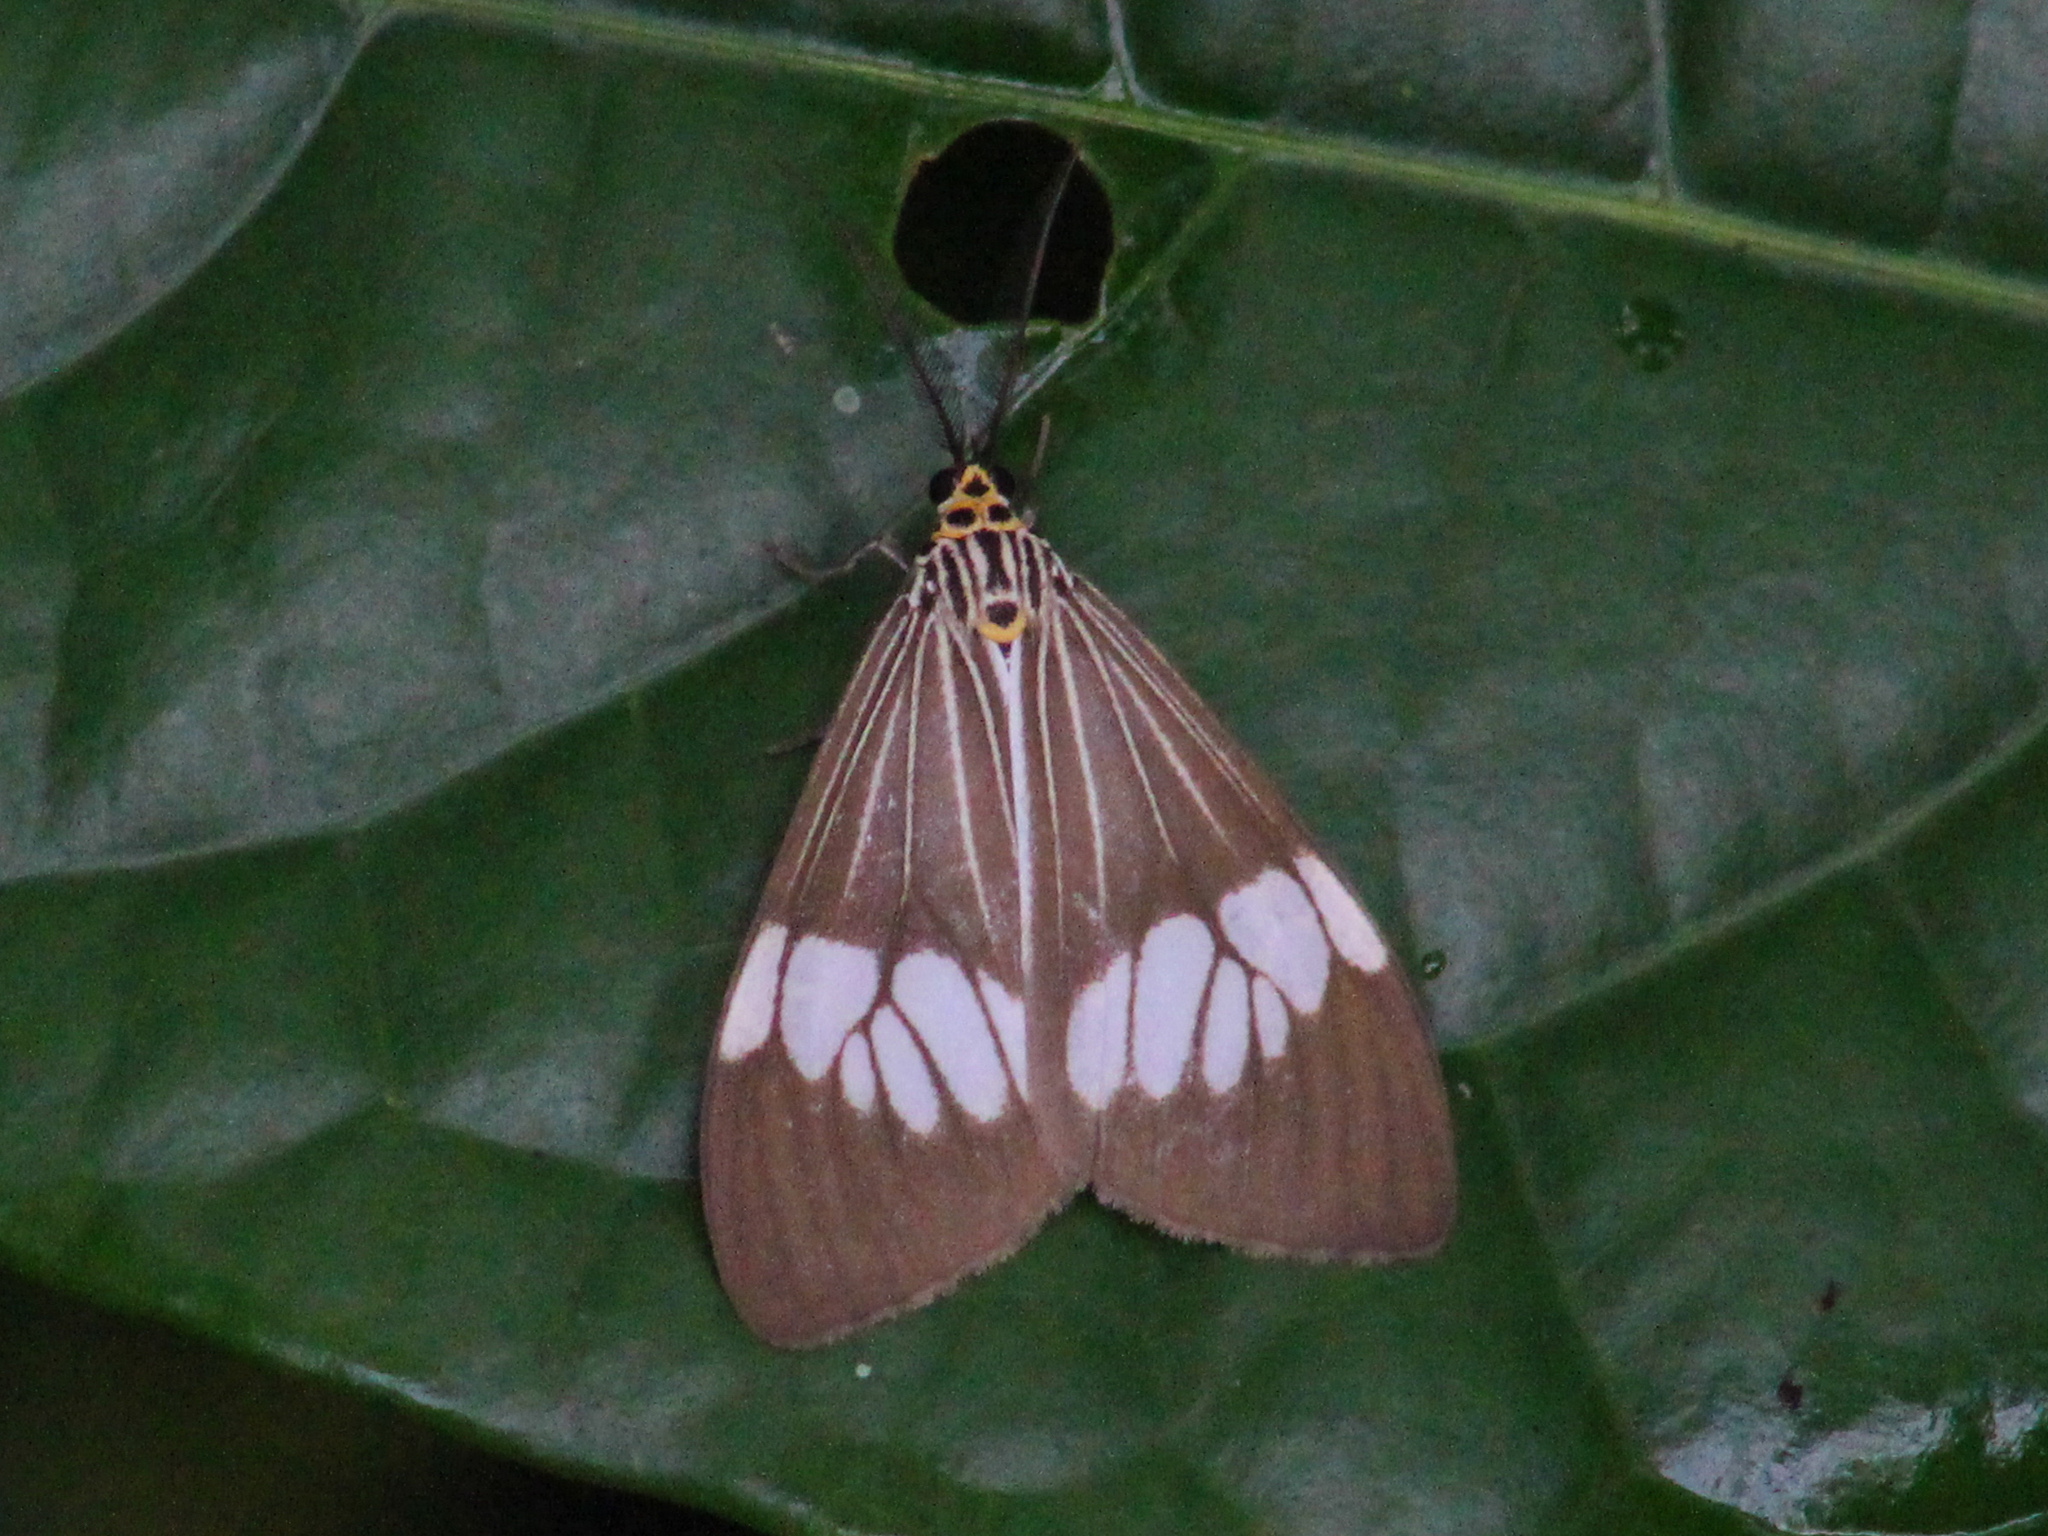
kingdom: Animalia
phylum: Arthropoda
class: Insecta
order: Lepidoptera
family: Erebidae
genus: Nyctemera
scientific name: Nyctemera baulus
